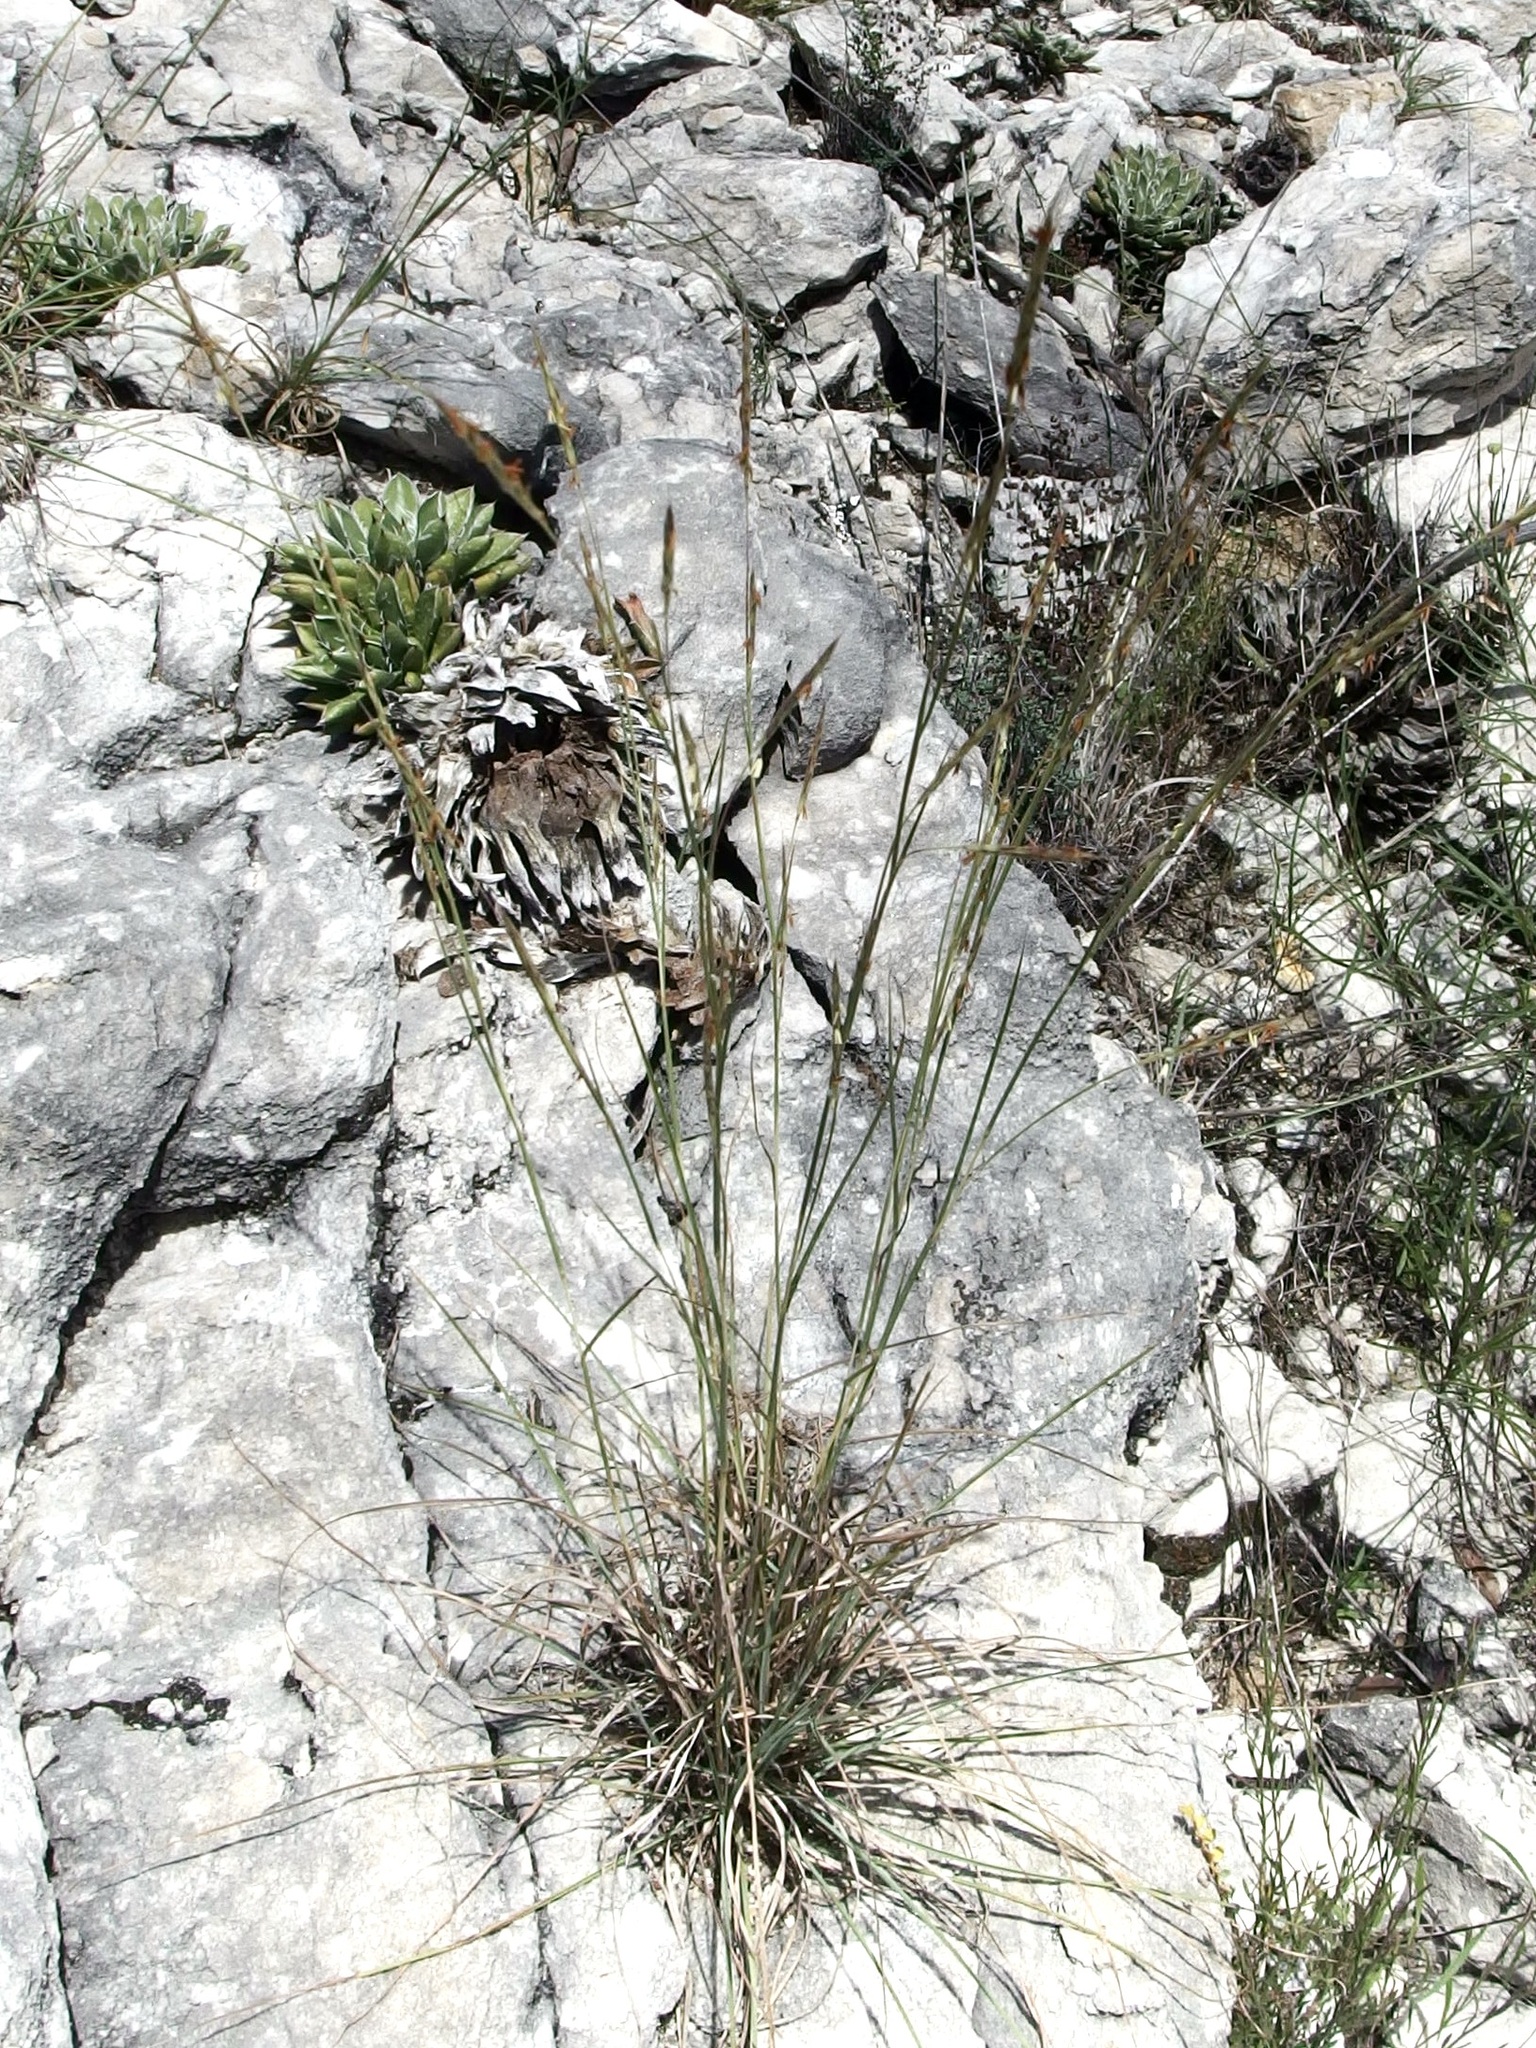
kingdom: Plantae
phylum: Tracheophyta
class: Liliopsida
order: Poales
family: Poaceae
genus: Schizachyrium
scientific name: Schizachyrium scoparium
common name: Little bluestem
